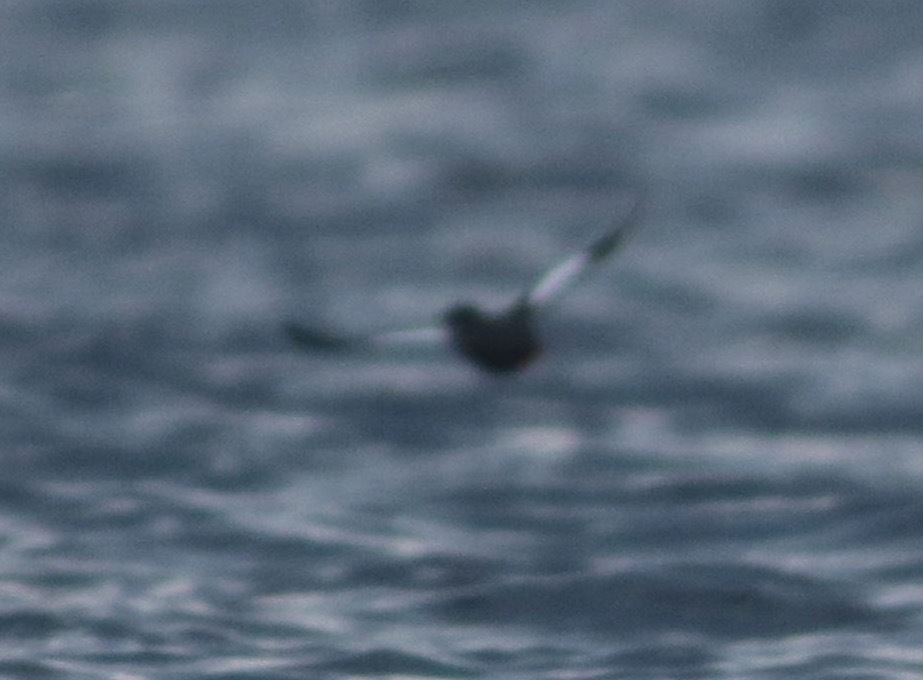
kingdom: Animalia
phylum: Chordata
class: Aves
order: Charadriiformes
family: Alcidae
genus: Cepphus
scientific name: Cepphus grylle
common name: Black guillemot
